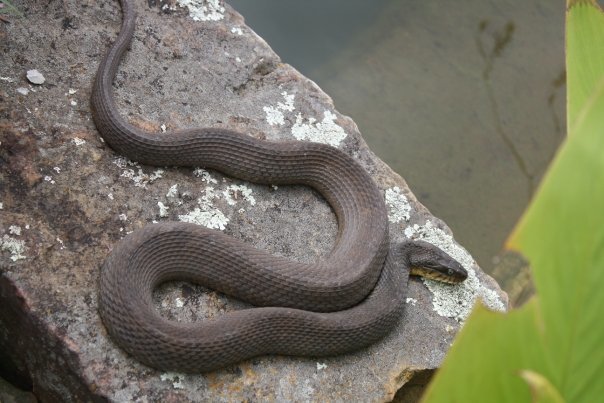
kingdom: Animalia
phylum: Chordata
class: Squamata
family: Colubridae
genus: Nerodia
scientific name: Nerodia erythrogaster
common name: Plainbelly water snake
